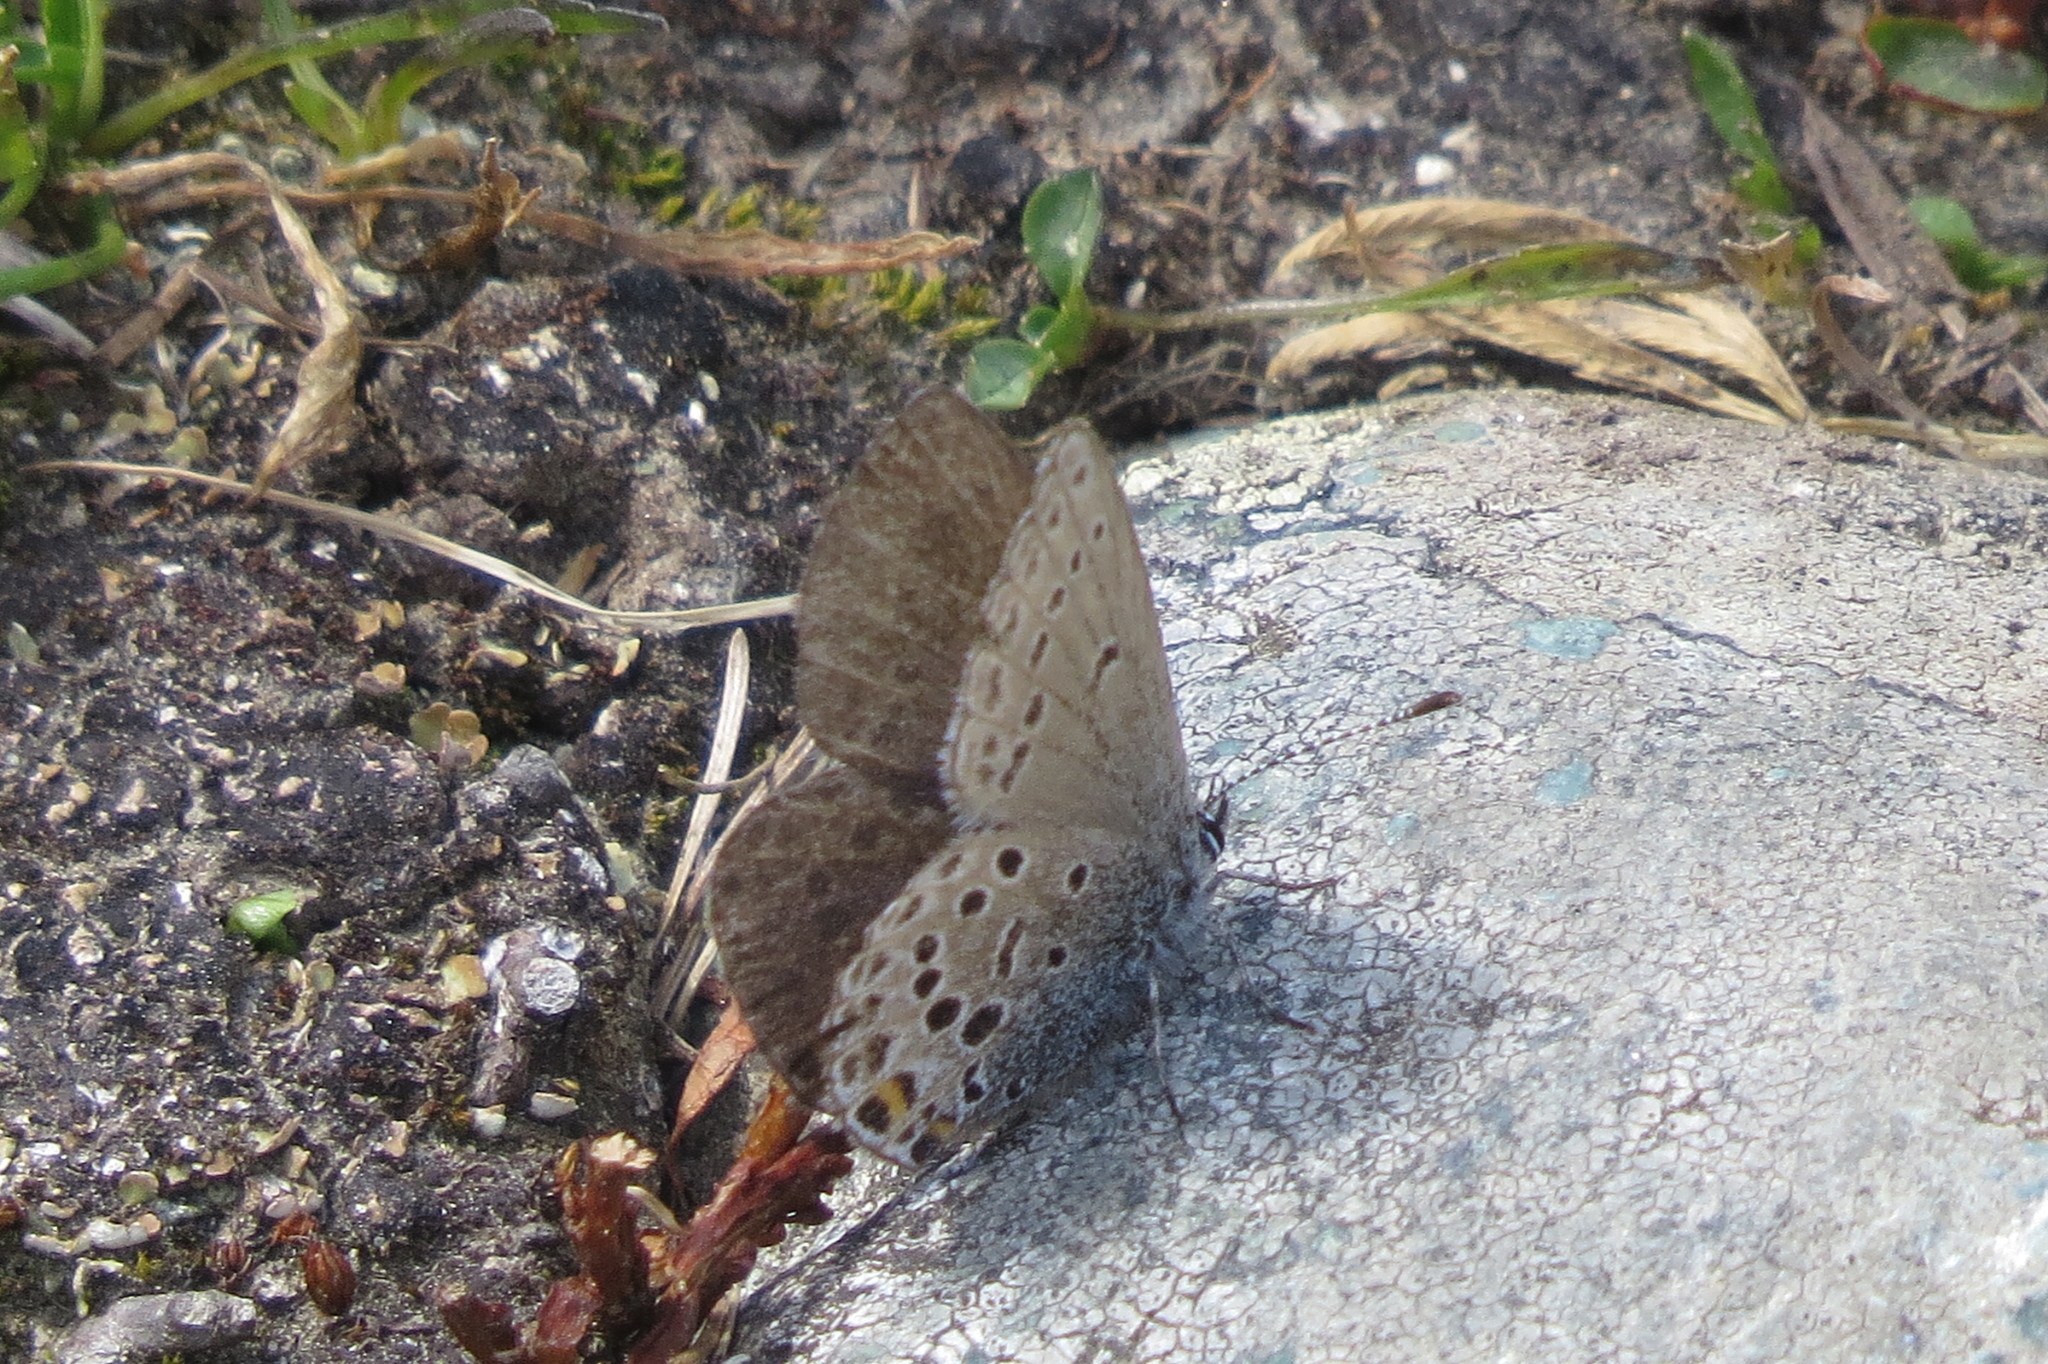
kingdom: Animalia
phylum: Arthropoda
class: Insecta
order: Lepidoptera
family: Lycaenidae
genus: Vacciniina
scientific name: Vacciniina optilete
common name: Cranberry blue
